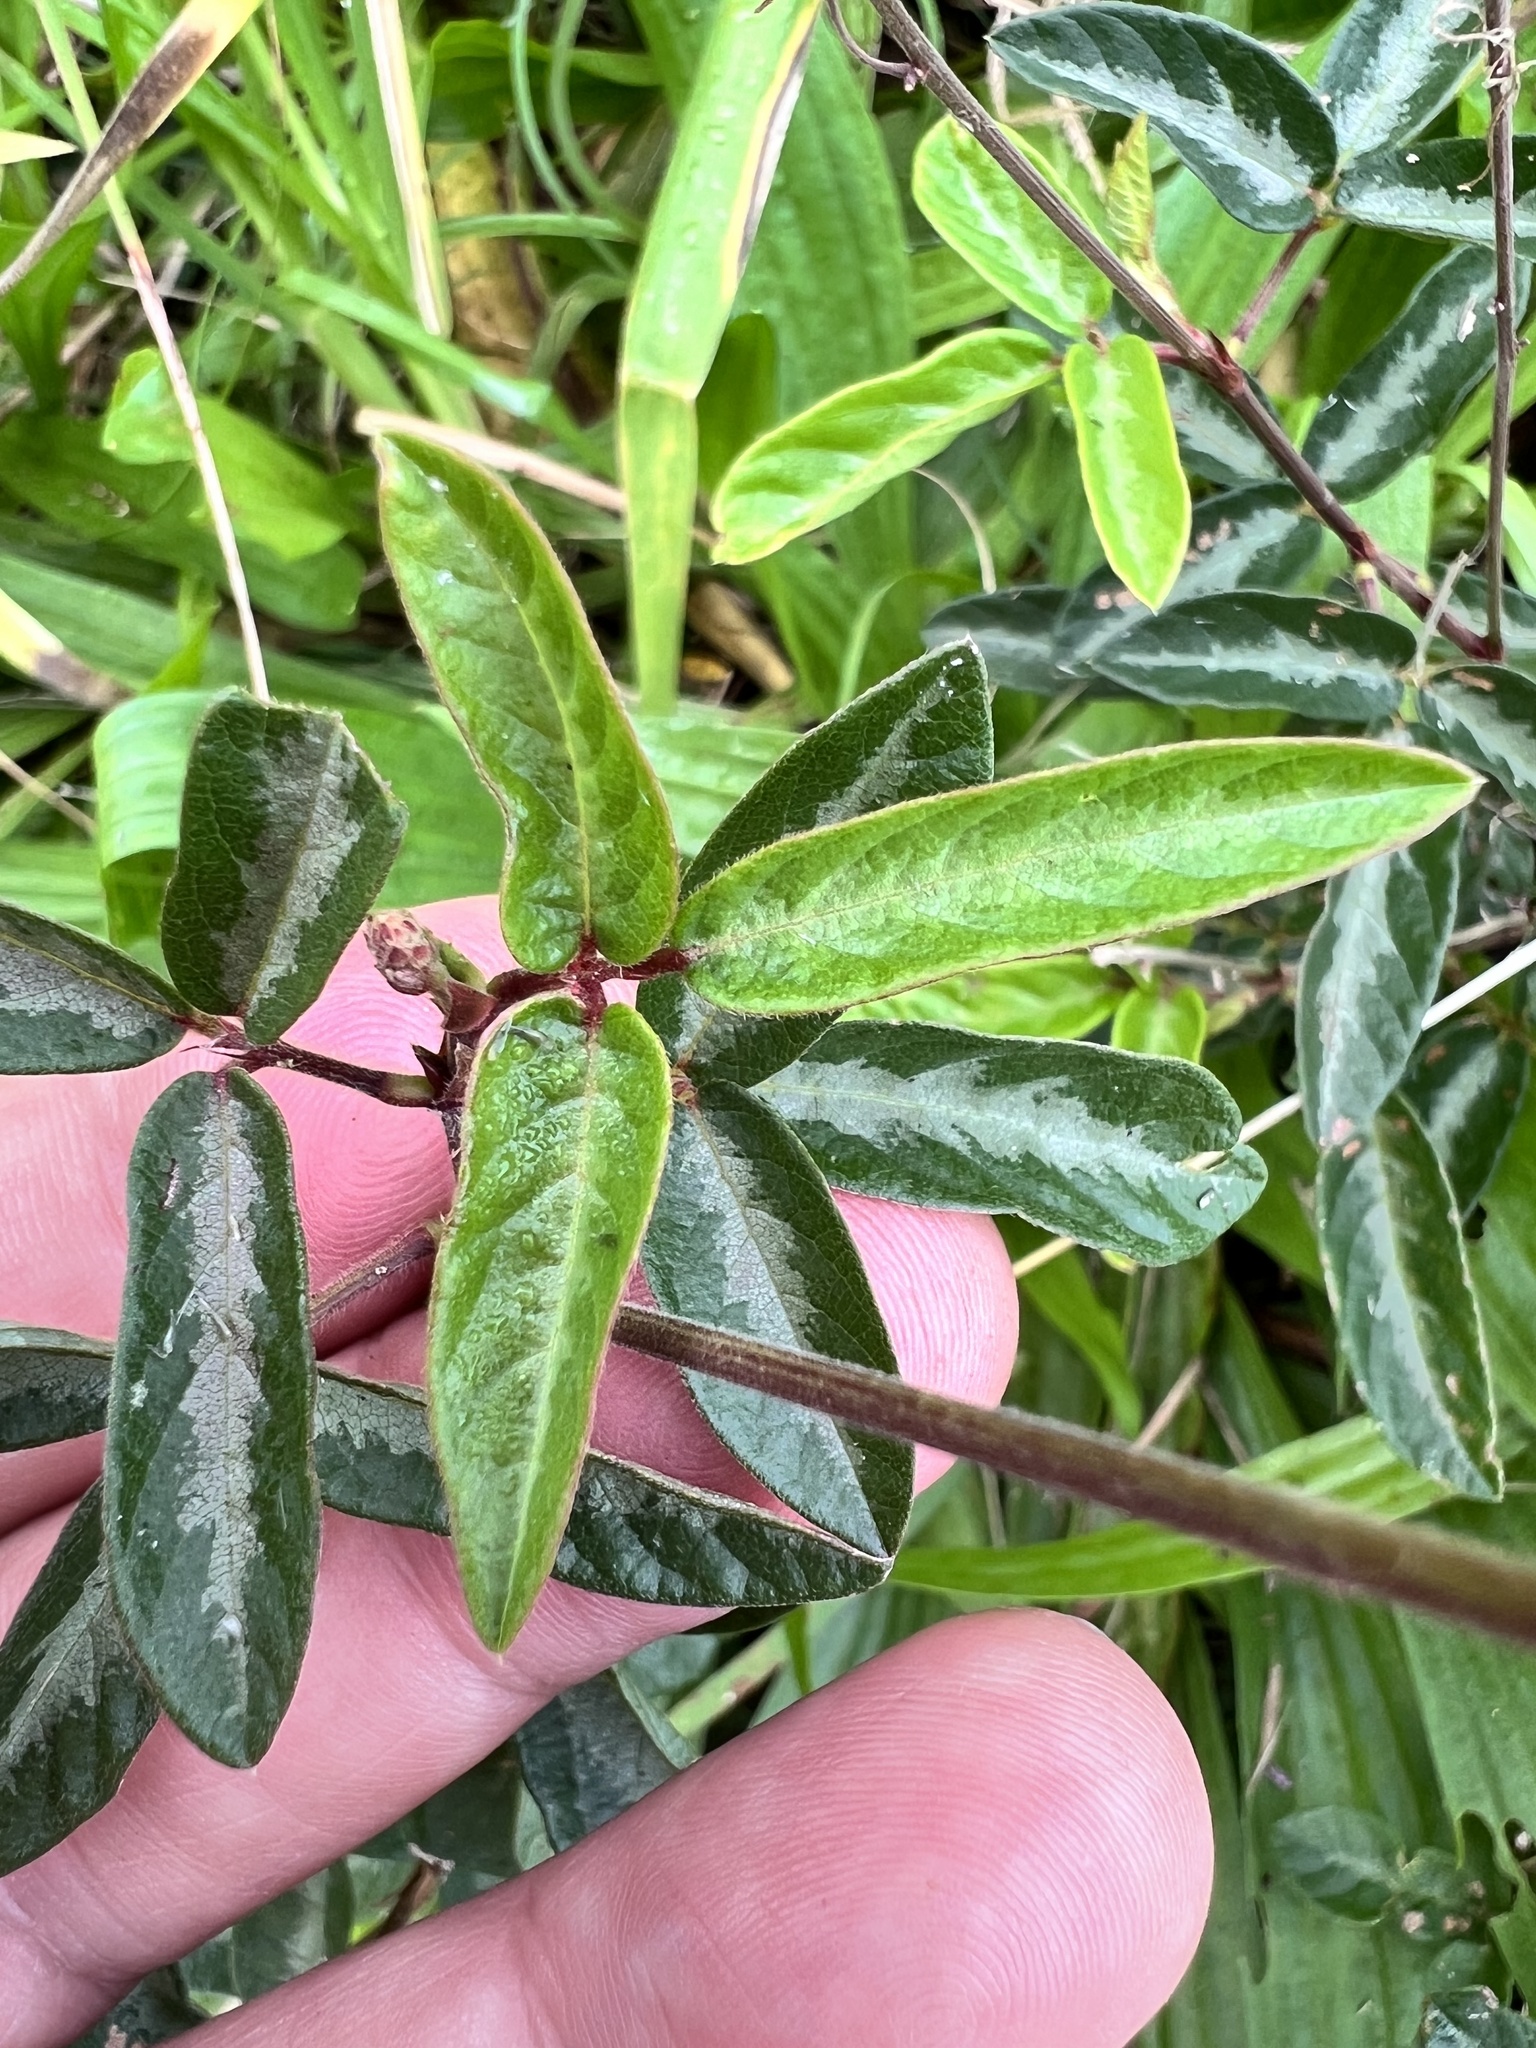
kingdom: Plantae
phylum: Tracheophyta
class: Magnoliopsida
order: Fabales
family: Fabaceae
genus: Desmodium
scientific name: Desmodium incanum
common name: Tickclover
